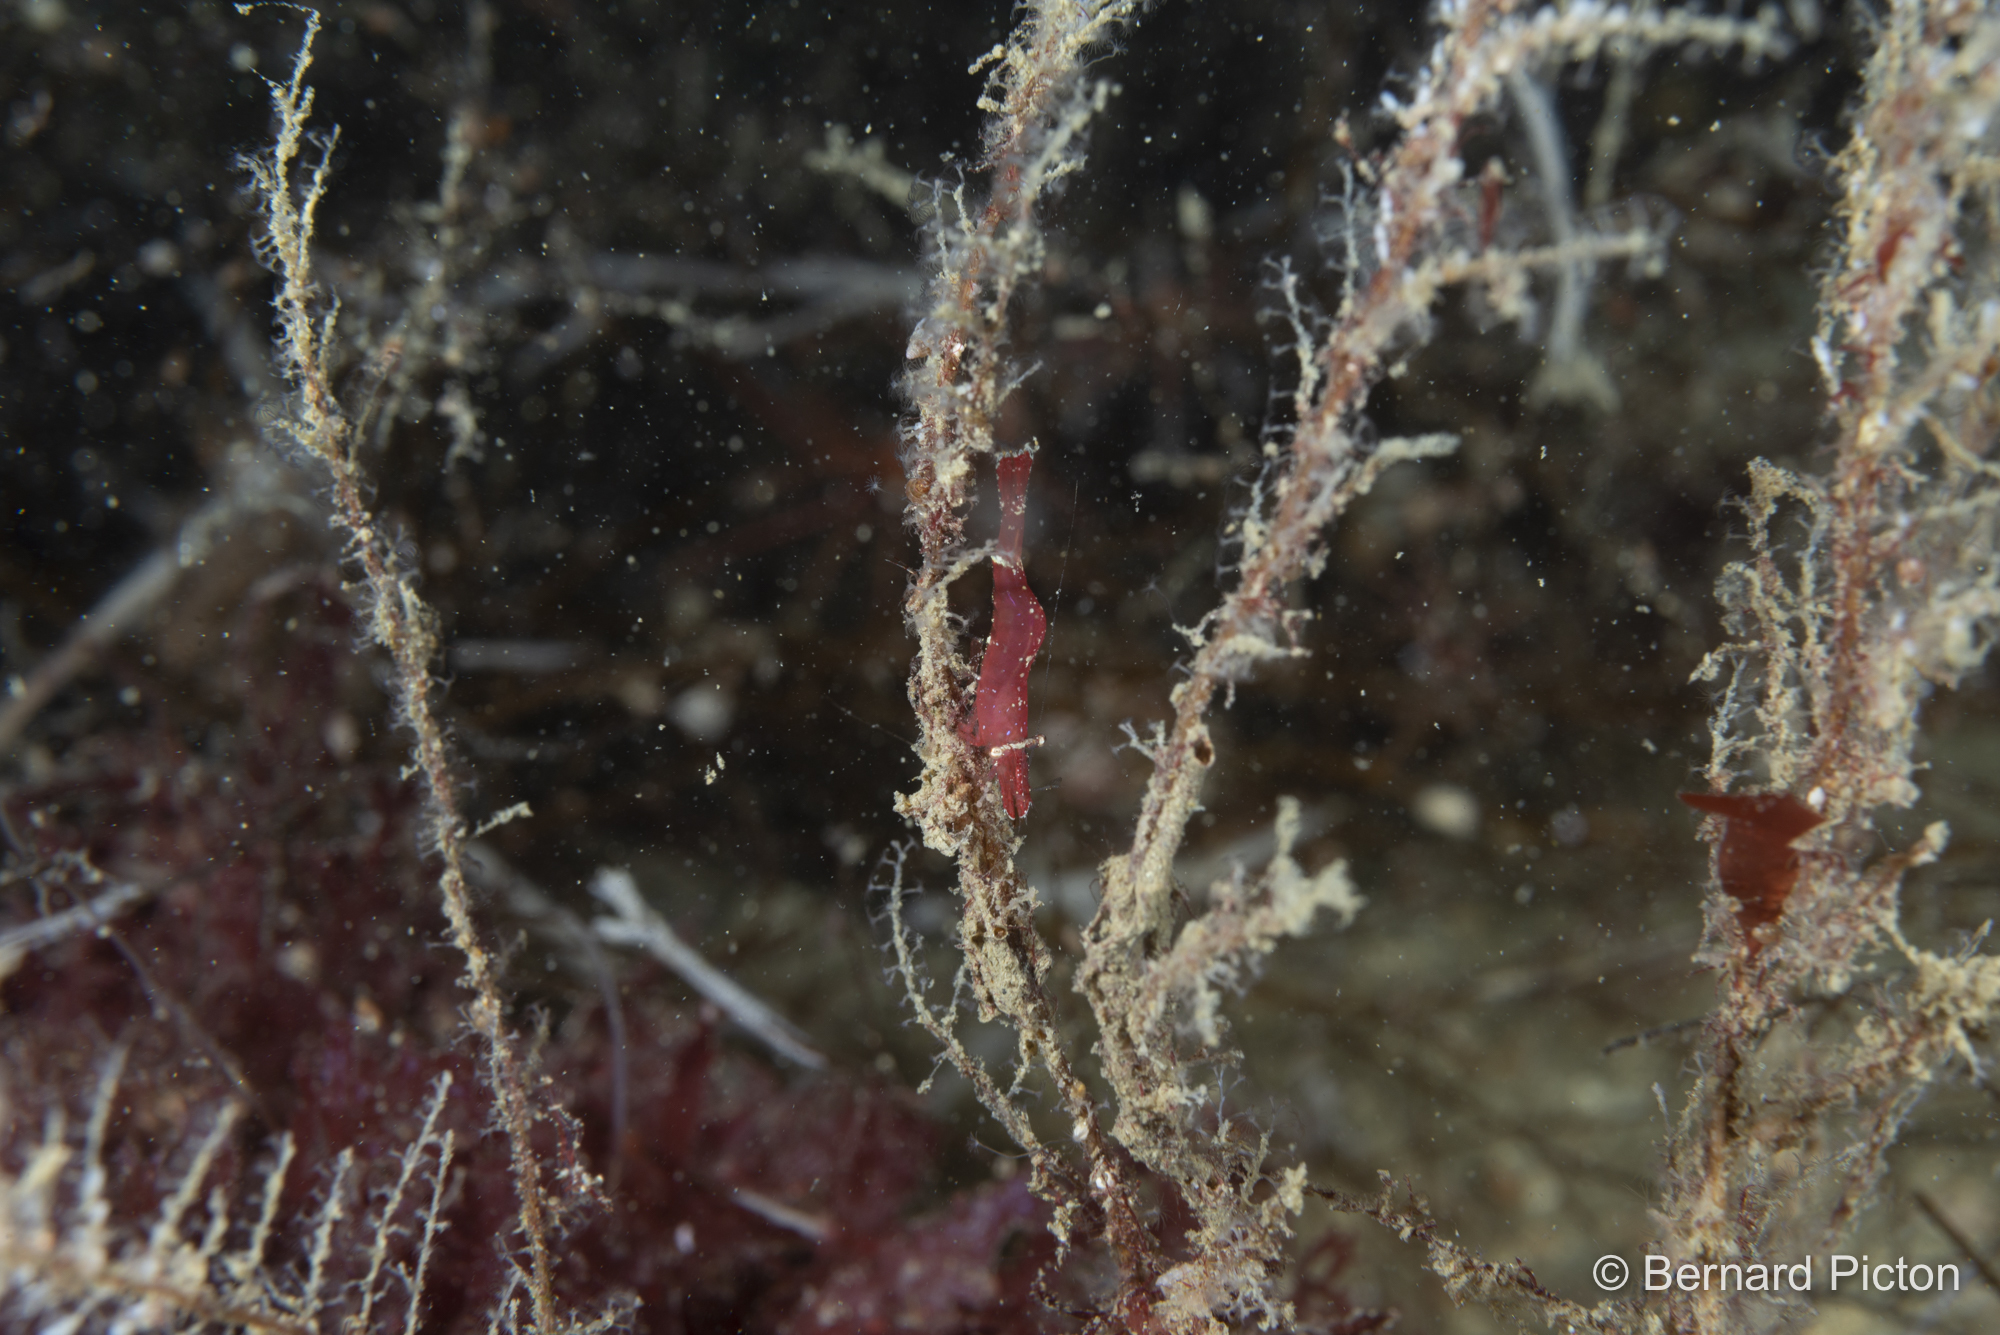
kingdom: Animalia
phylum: Arthropoda
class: Malacostraca
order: Decapoda
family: Hippolytidae
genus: Hippolyte
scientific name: Hippolyte varians
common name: Chamaeleon prawn
